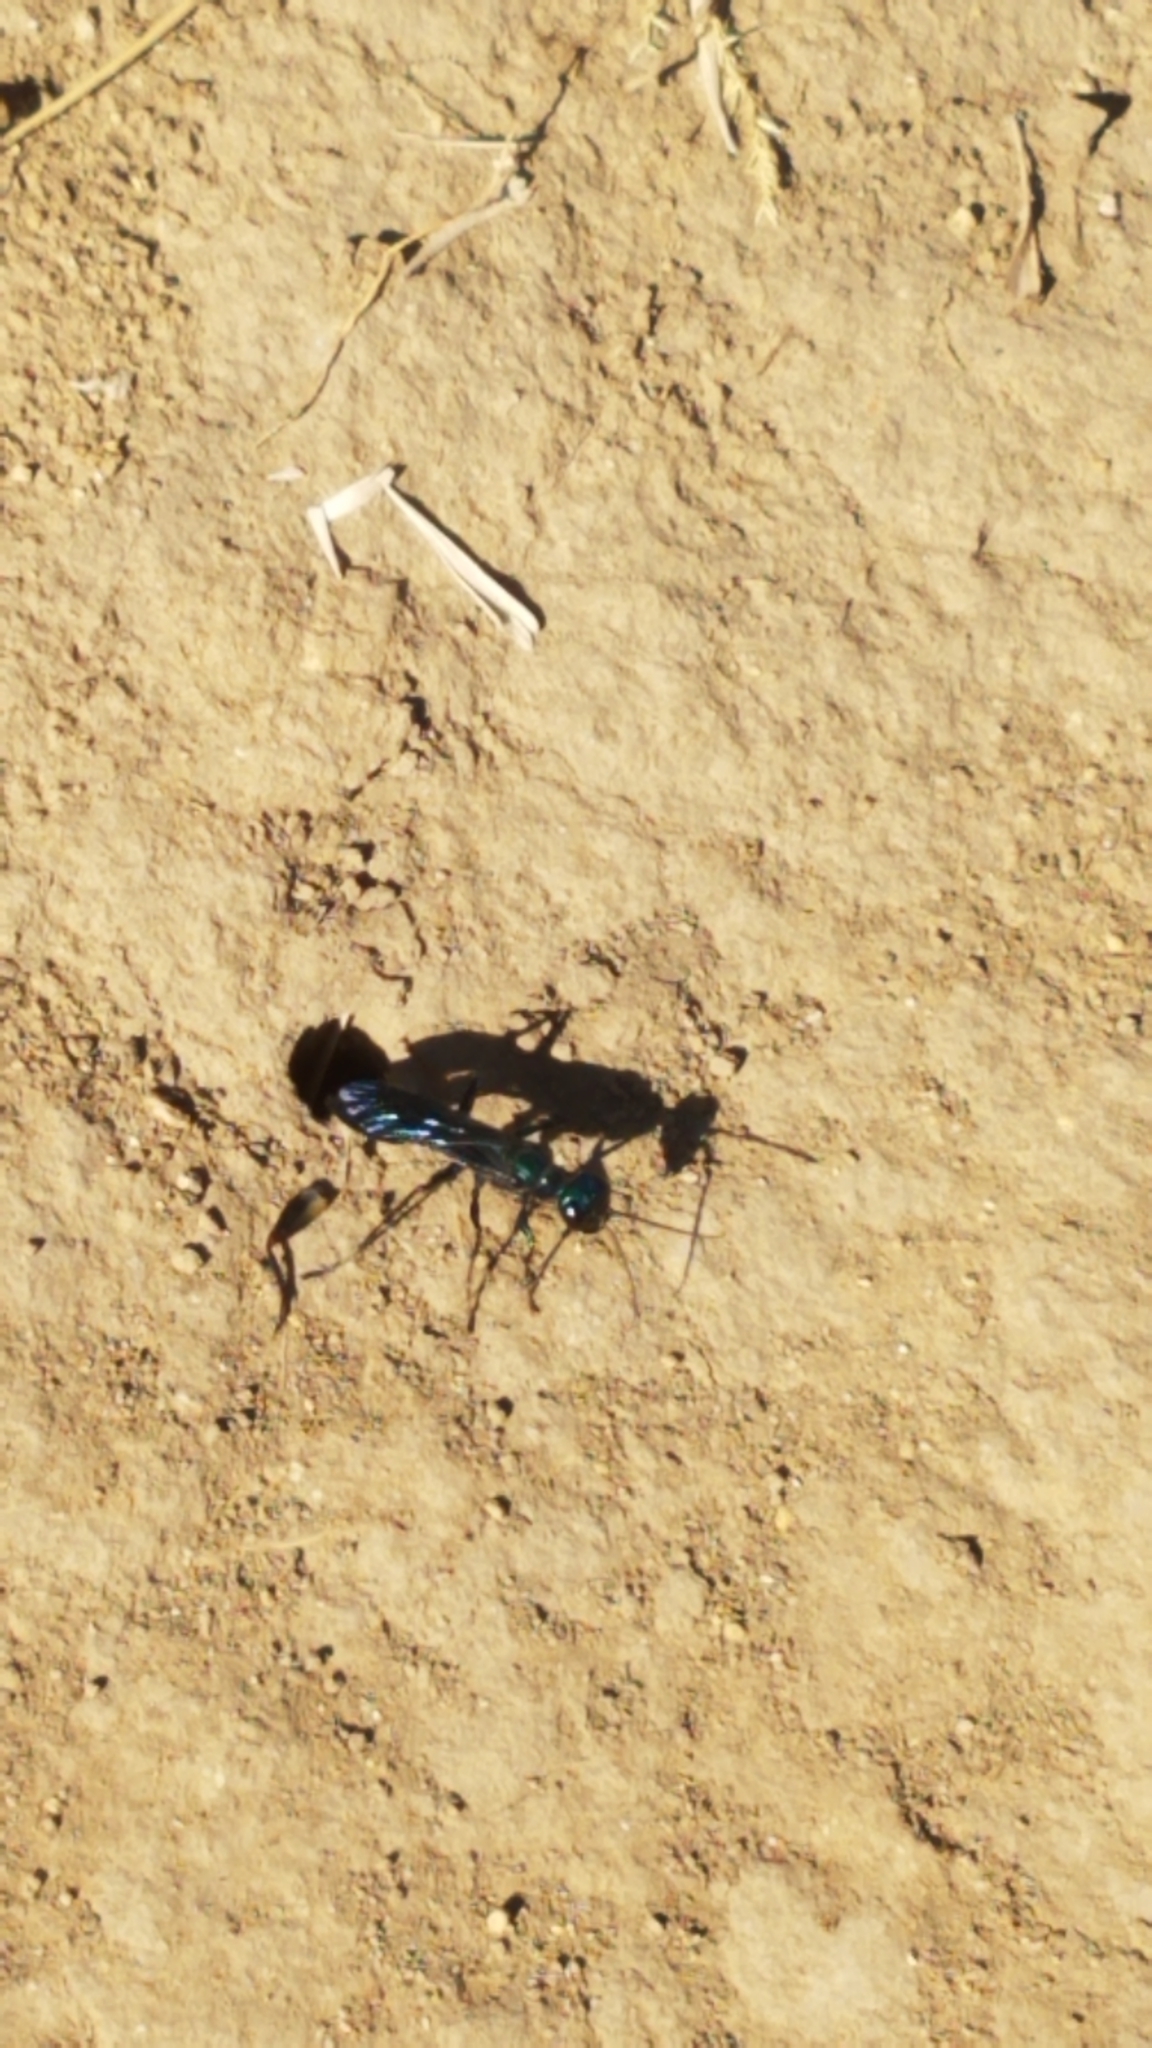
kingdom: Animalia
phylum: Arthropoda
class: Insecta
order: Hymenoptera
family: Sphecidae
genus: Chlorion
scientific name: Chlorion aerarium
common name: Steel-blue cricket hunter
